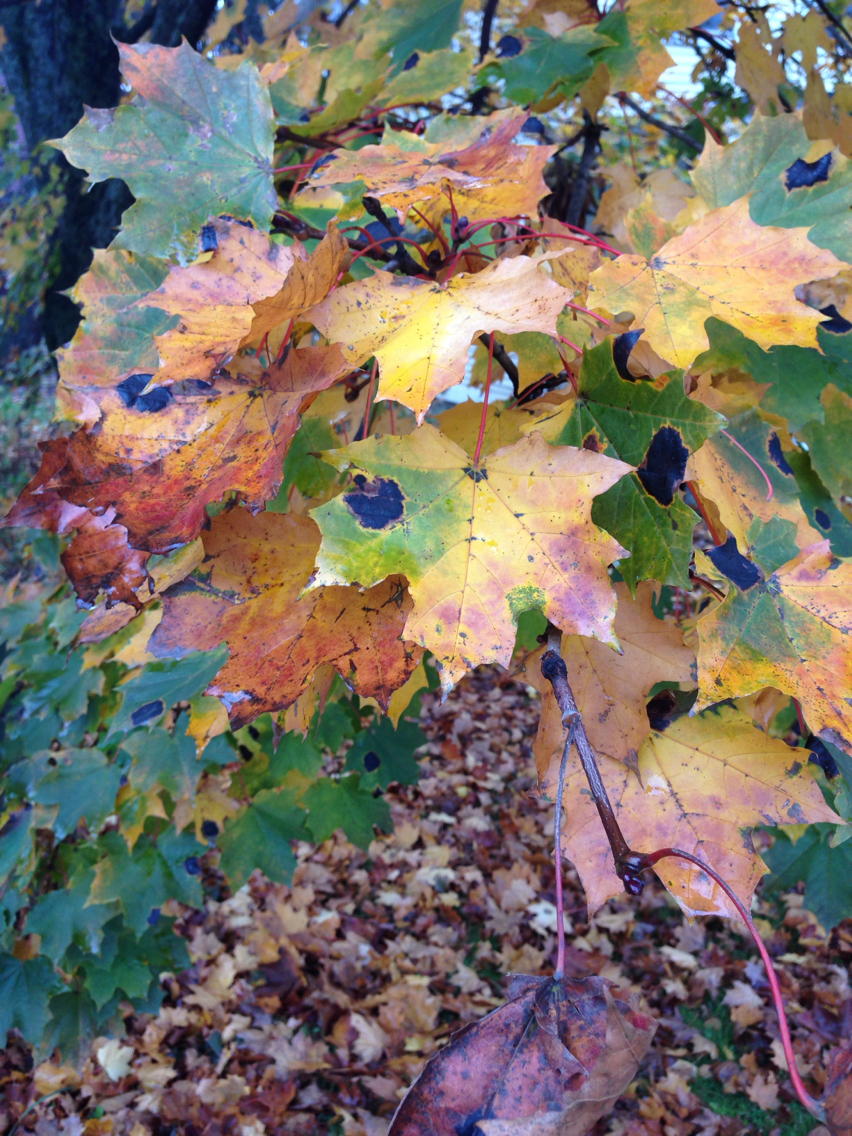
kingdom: Fungi
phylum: Ascomycota
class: Leotiomycetes
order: Rhytismatales
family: Rhytismataceae
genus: Rhytisma
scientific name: Rhytisma acerinum
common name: European tar spot
